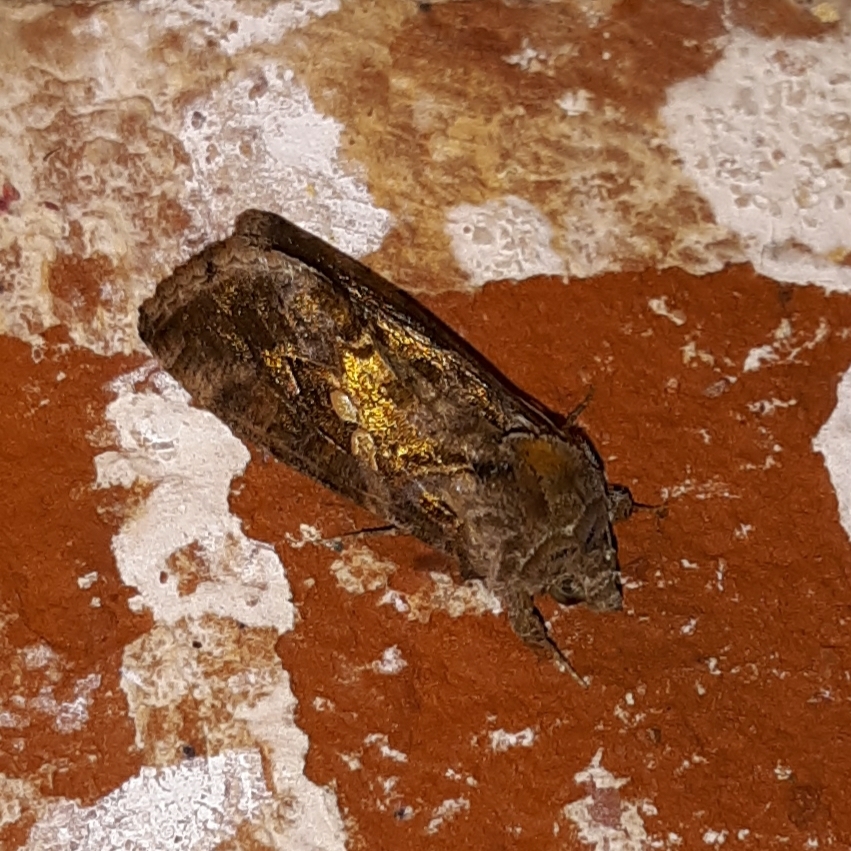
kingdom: Animalia
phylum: Arthropoda
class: Insecta
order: Lepidoptera
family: Noctuidae
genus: Argyrogramma
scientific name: Argyrogramma verruca
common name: Golden looper moth
